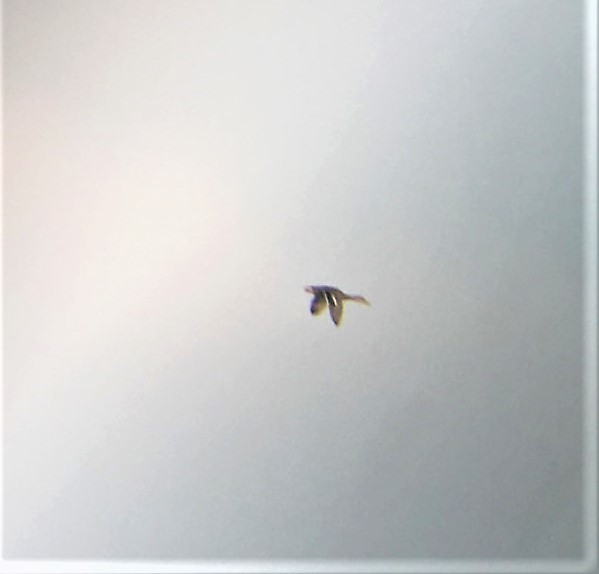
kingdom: Animalia
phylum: Chordata
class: Aves
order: Anseriformes
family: Anatidae
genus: Anas
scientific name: Anas platyrhynchos
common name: Mallard
